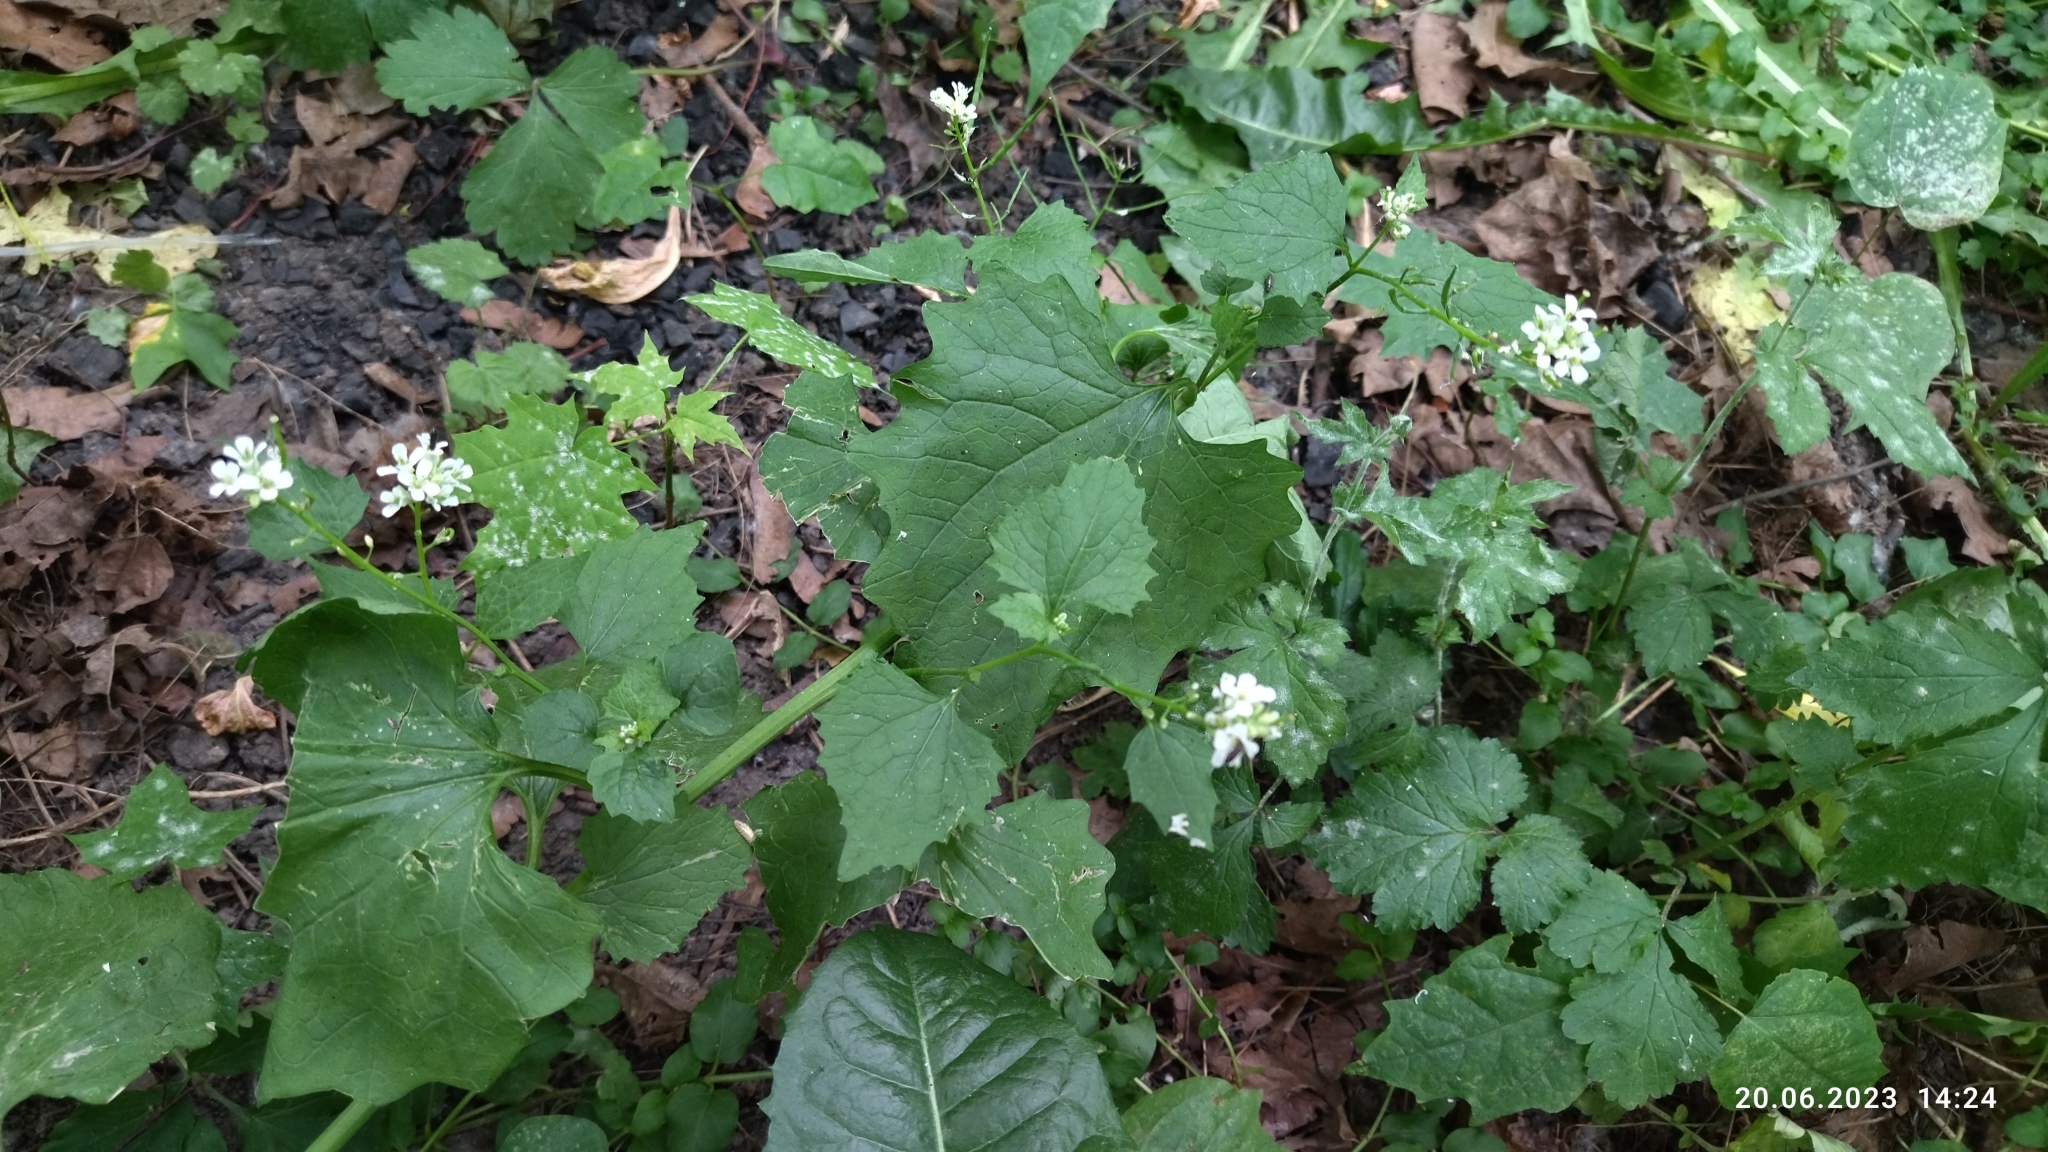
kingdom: Plantae
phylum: Tracheophyta
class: Magnoliopsida
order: Brassicales
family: Brassicaceae
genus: Alliaria
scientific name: Alliaria petiolata
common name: Garlic mustard
